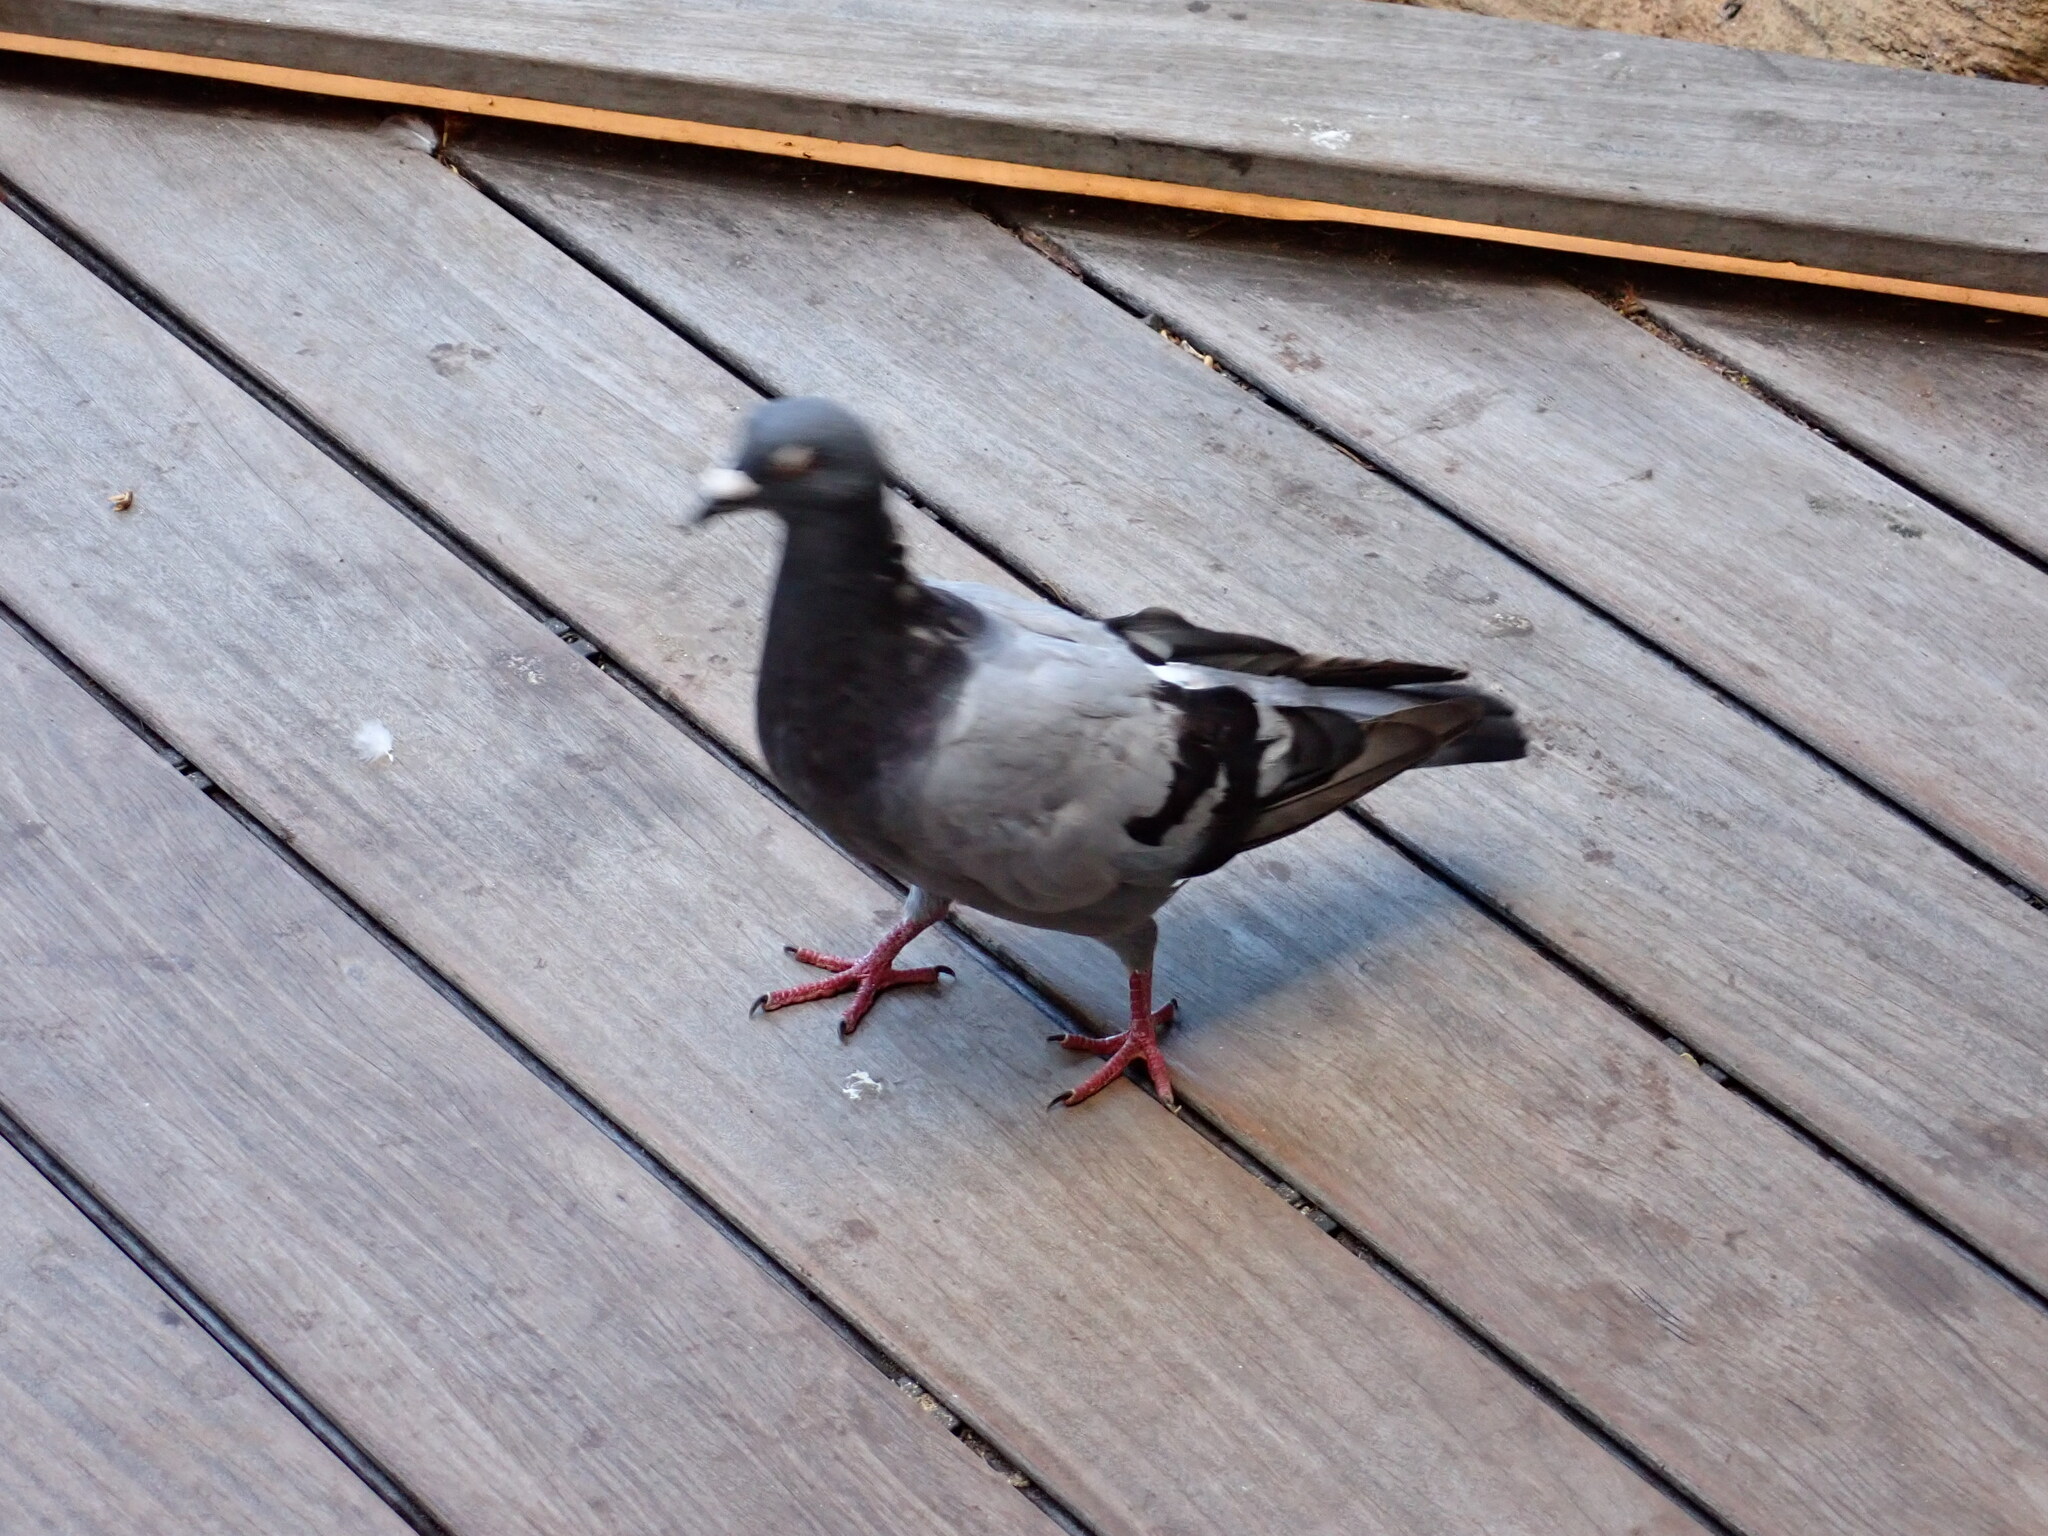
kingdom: Animalia
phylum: Chordata
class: Aves
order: Columbiformes
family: Columbidae
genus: Columba
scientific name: Columba livia
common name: Rock pigeon
